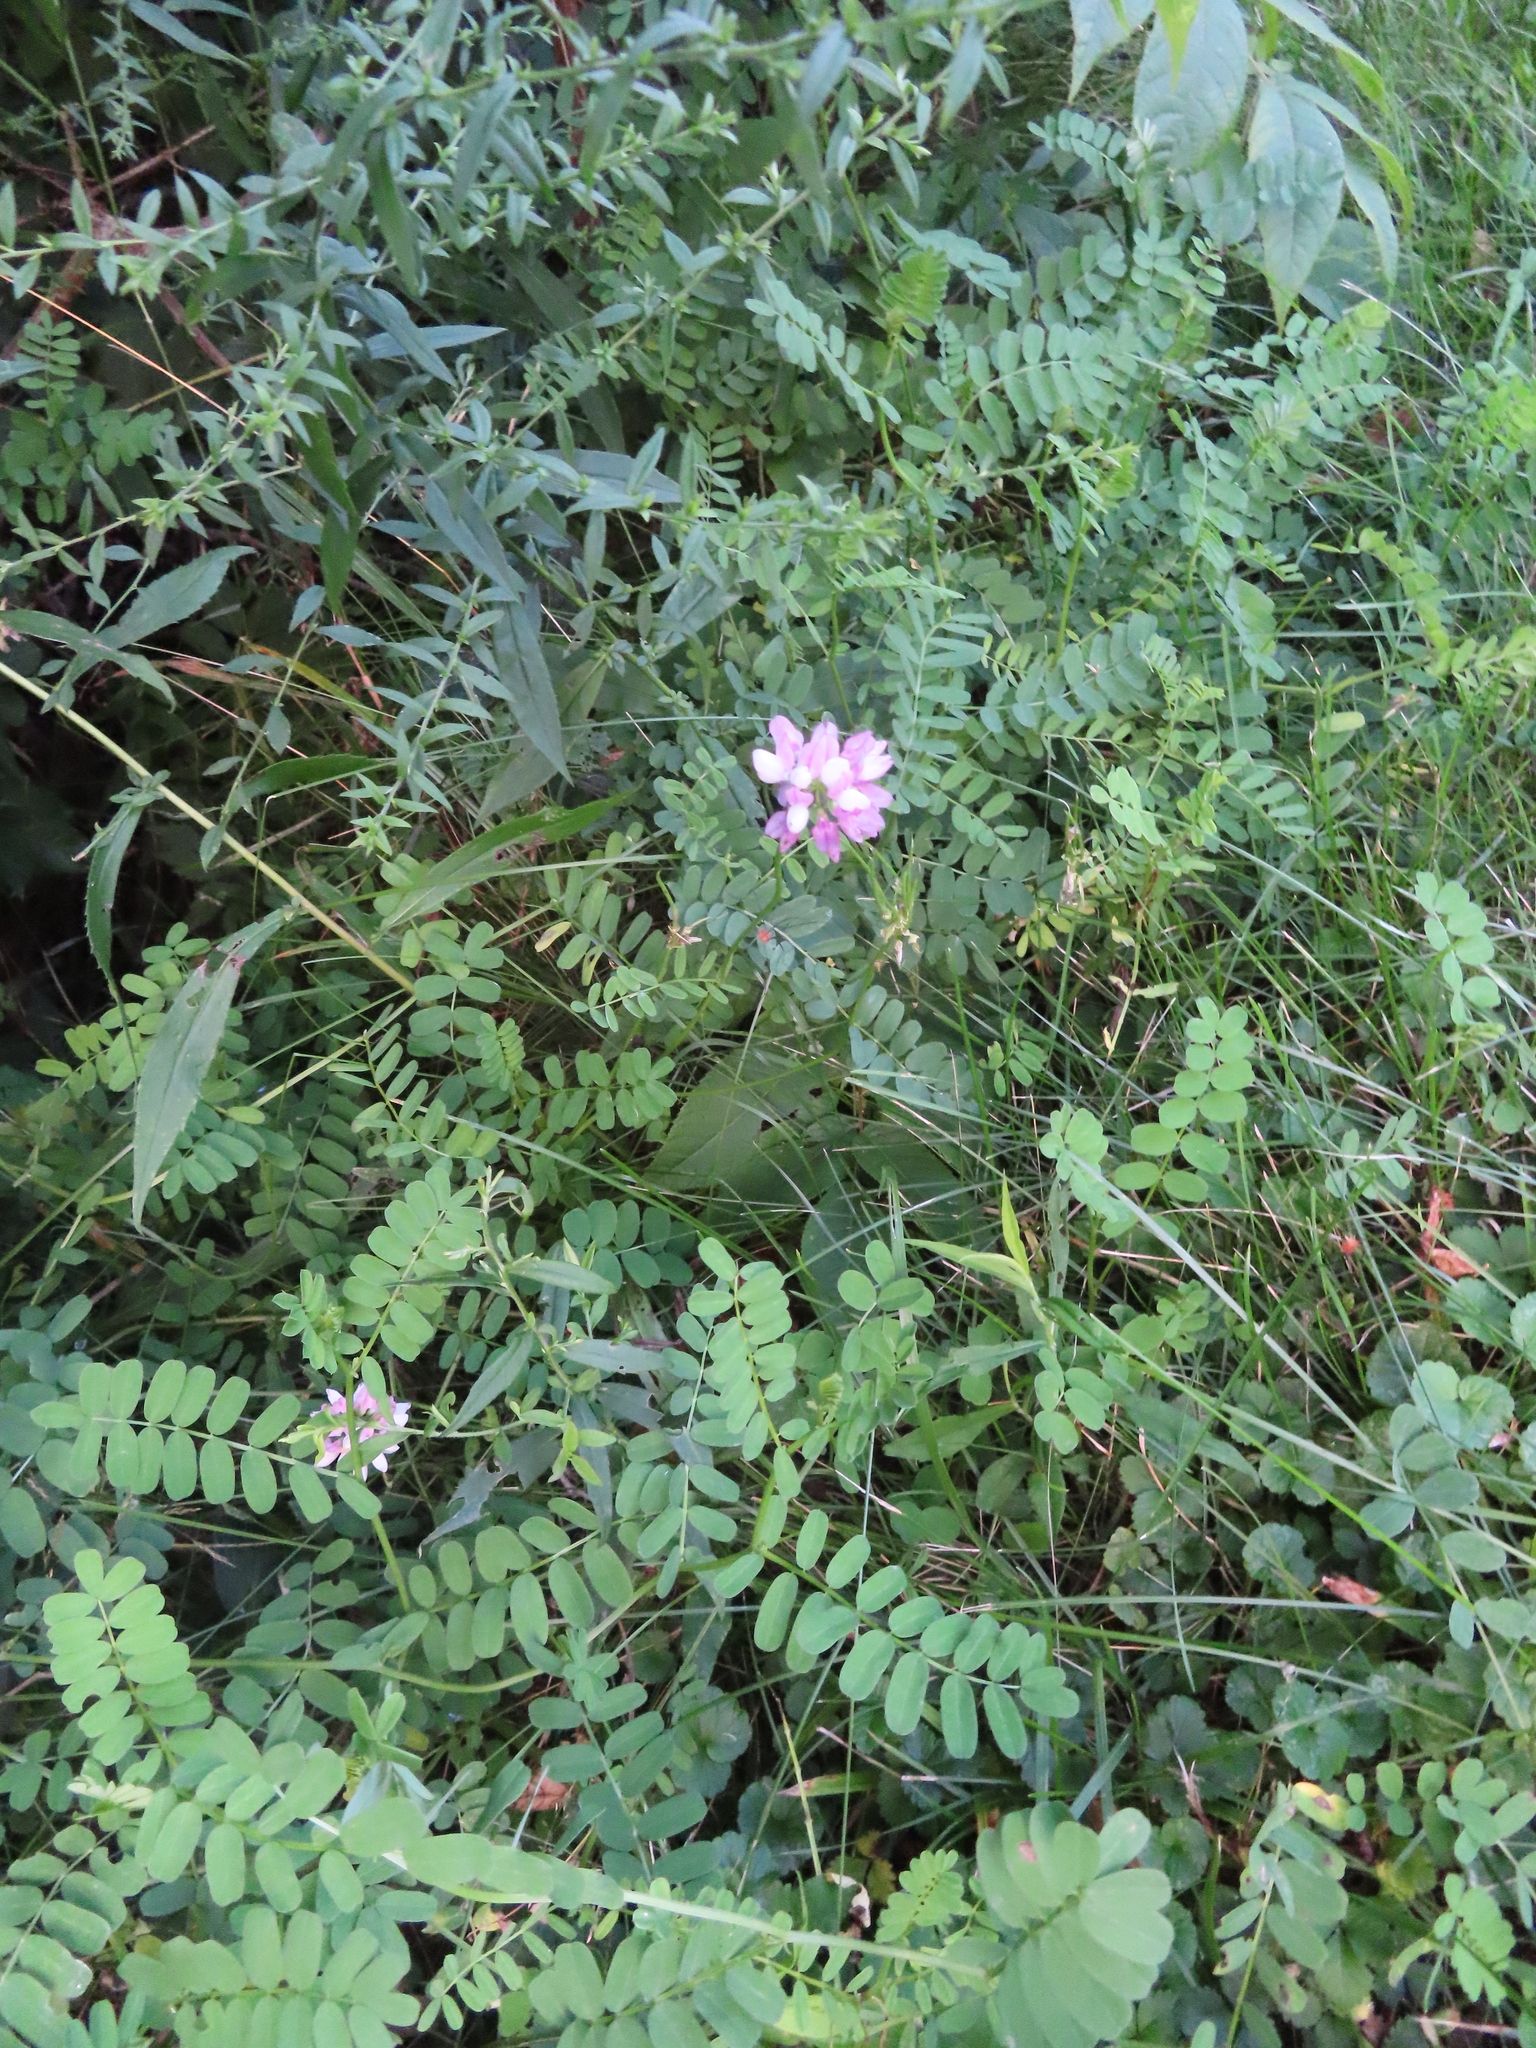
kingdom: Plantae
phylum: Tracheophyta
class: Magnoliopsida
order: Fabales
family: Fabaceae
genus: Coronilla
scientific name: Coronilla varia
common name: Crownvetch
